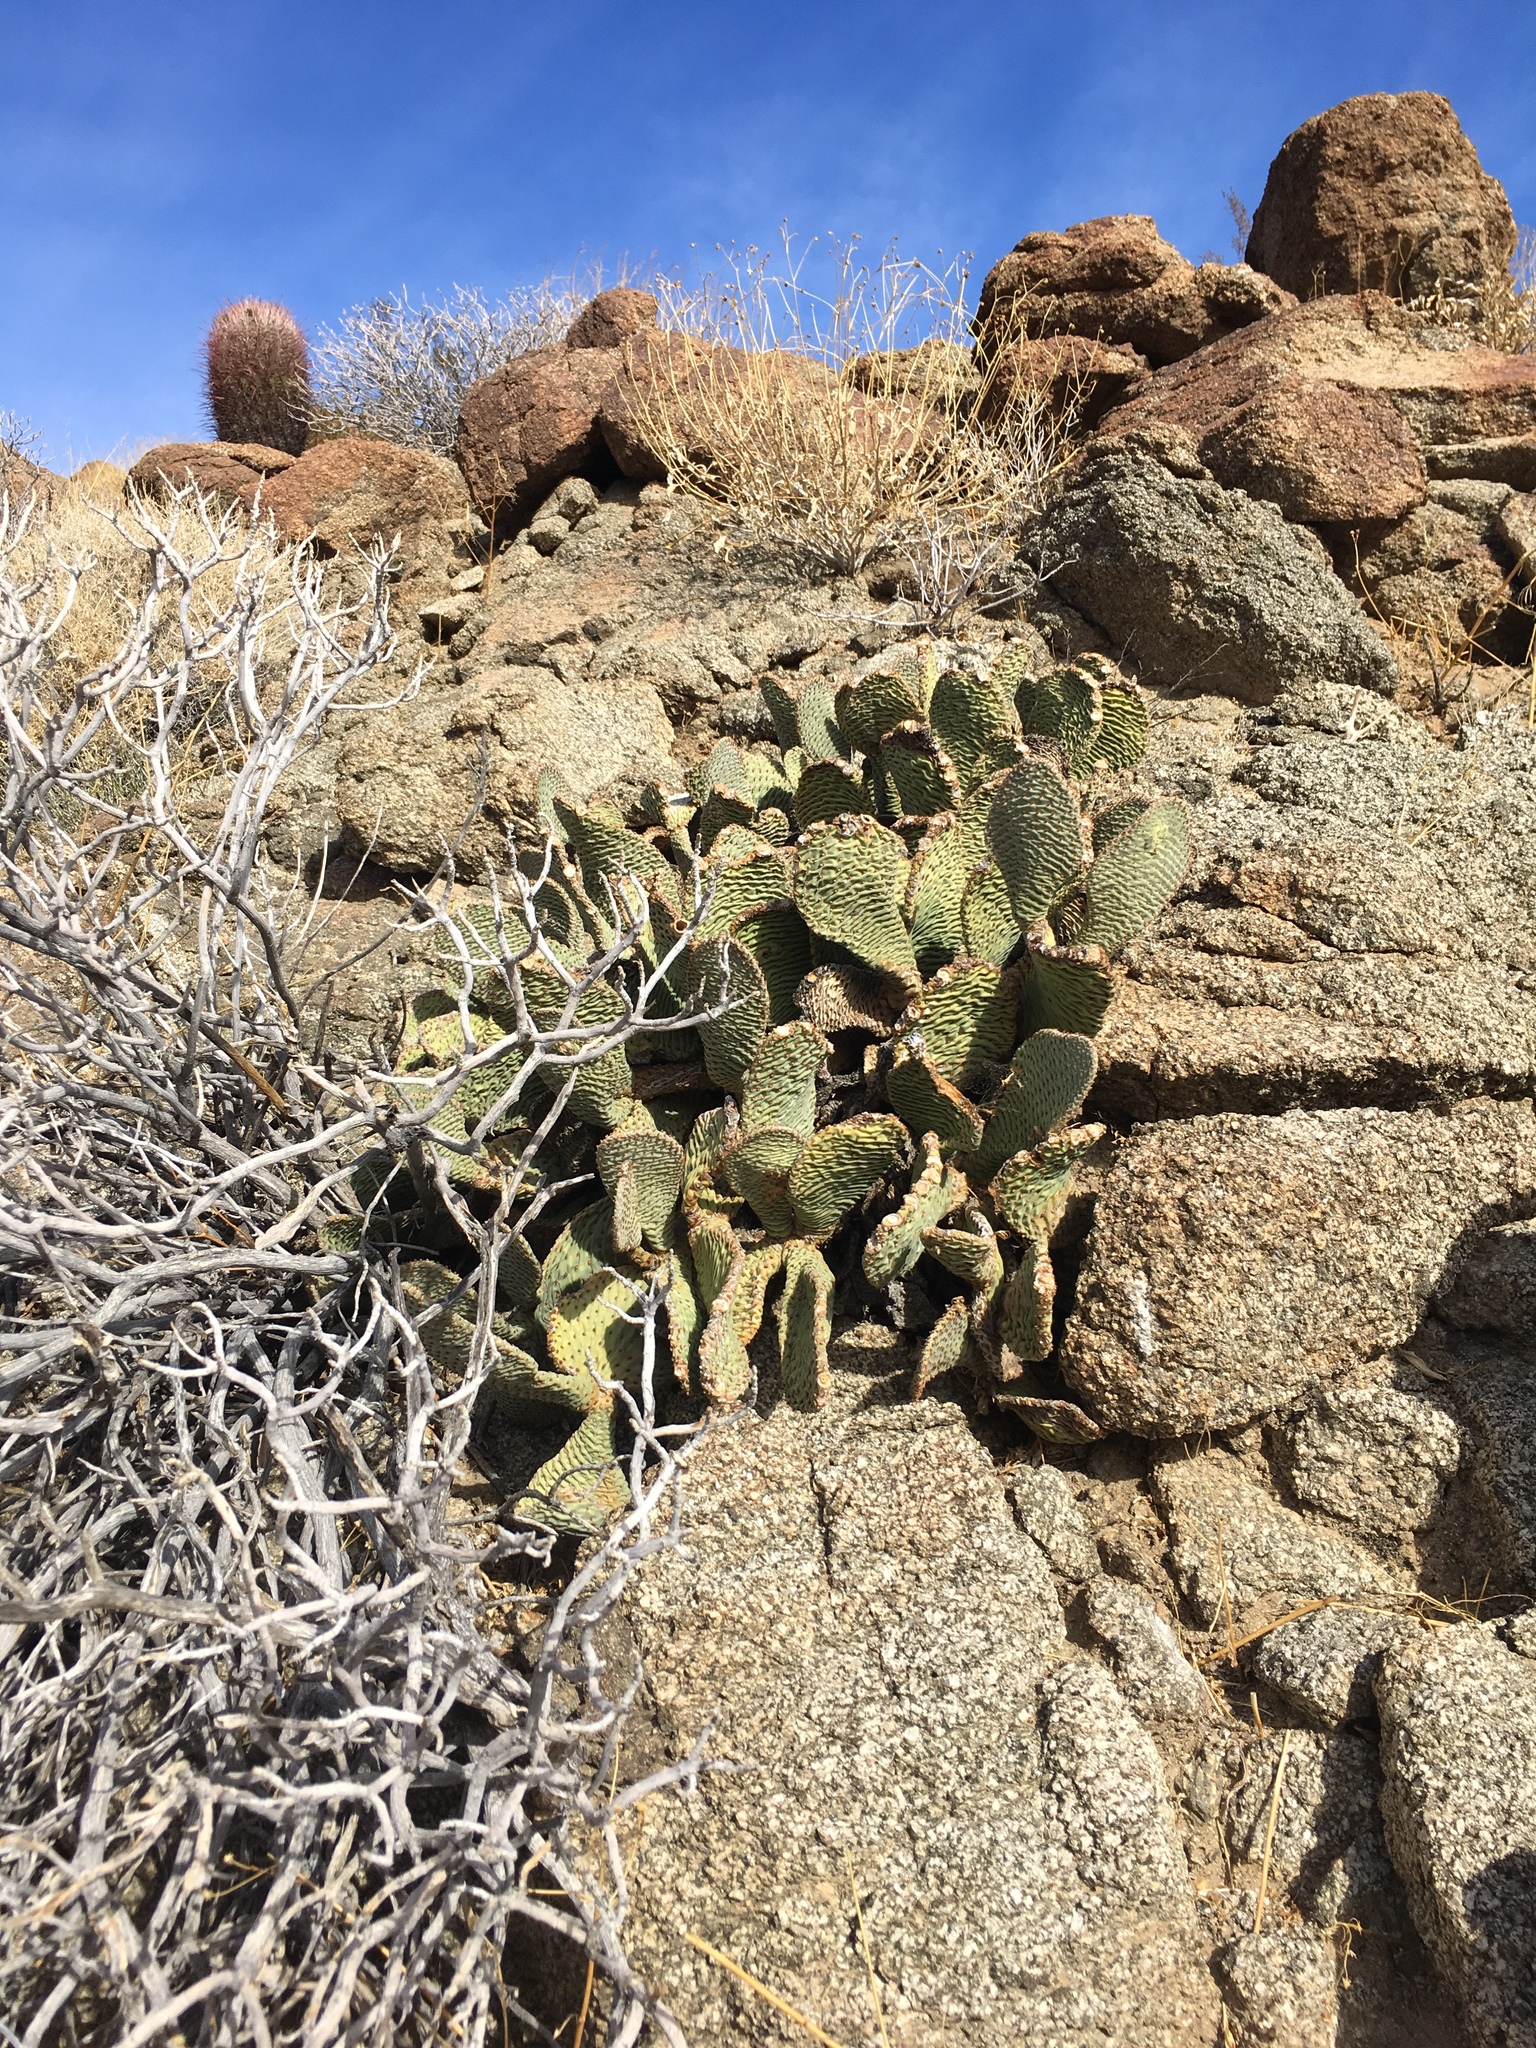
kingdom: Plantae
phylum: Tracheophyta
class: Magnoliopsida
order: Caryophyllales
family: Cactaceae
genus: Opuntia
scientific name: Opuntia basilaris
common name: Beavertail prickly-pear
